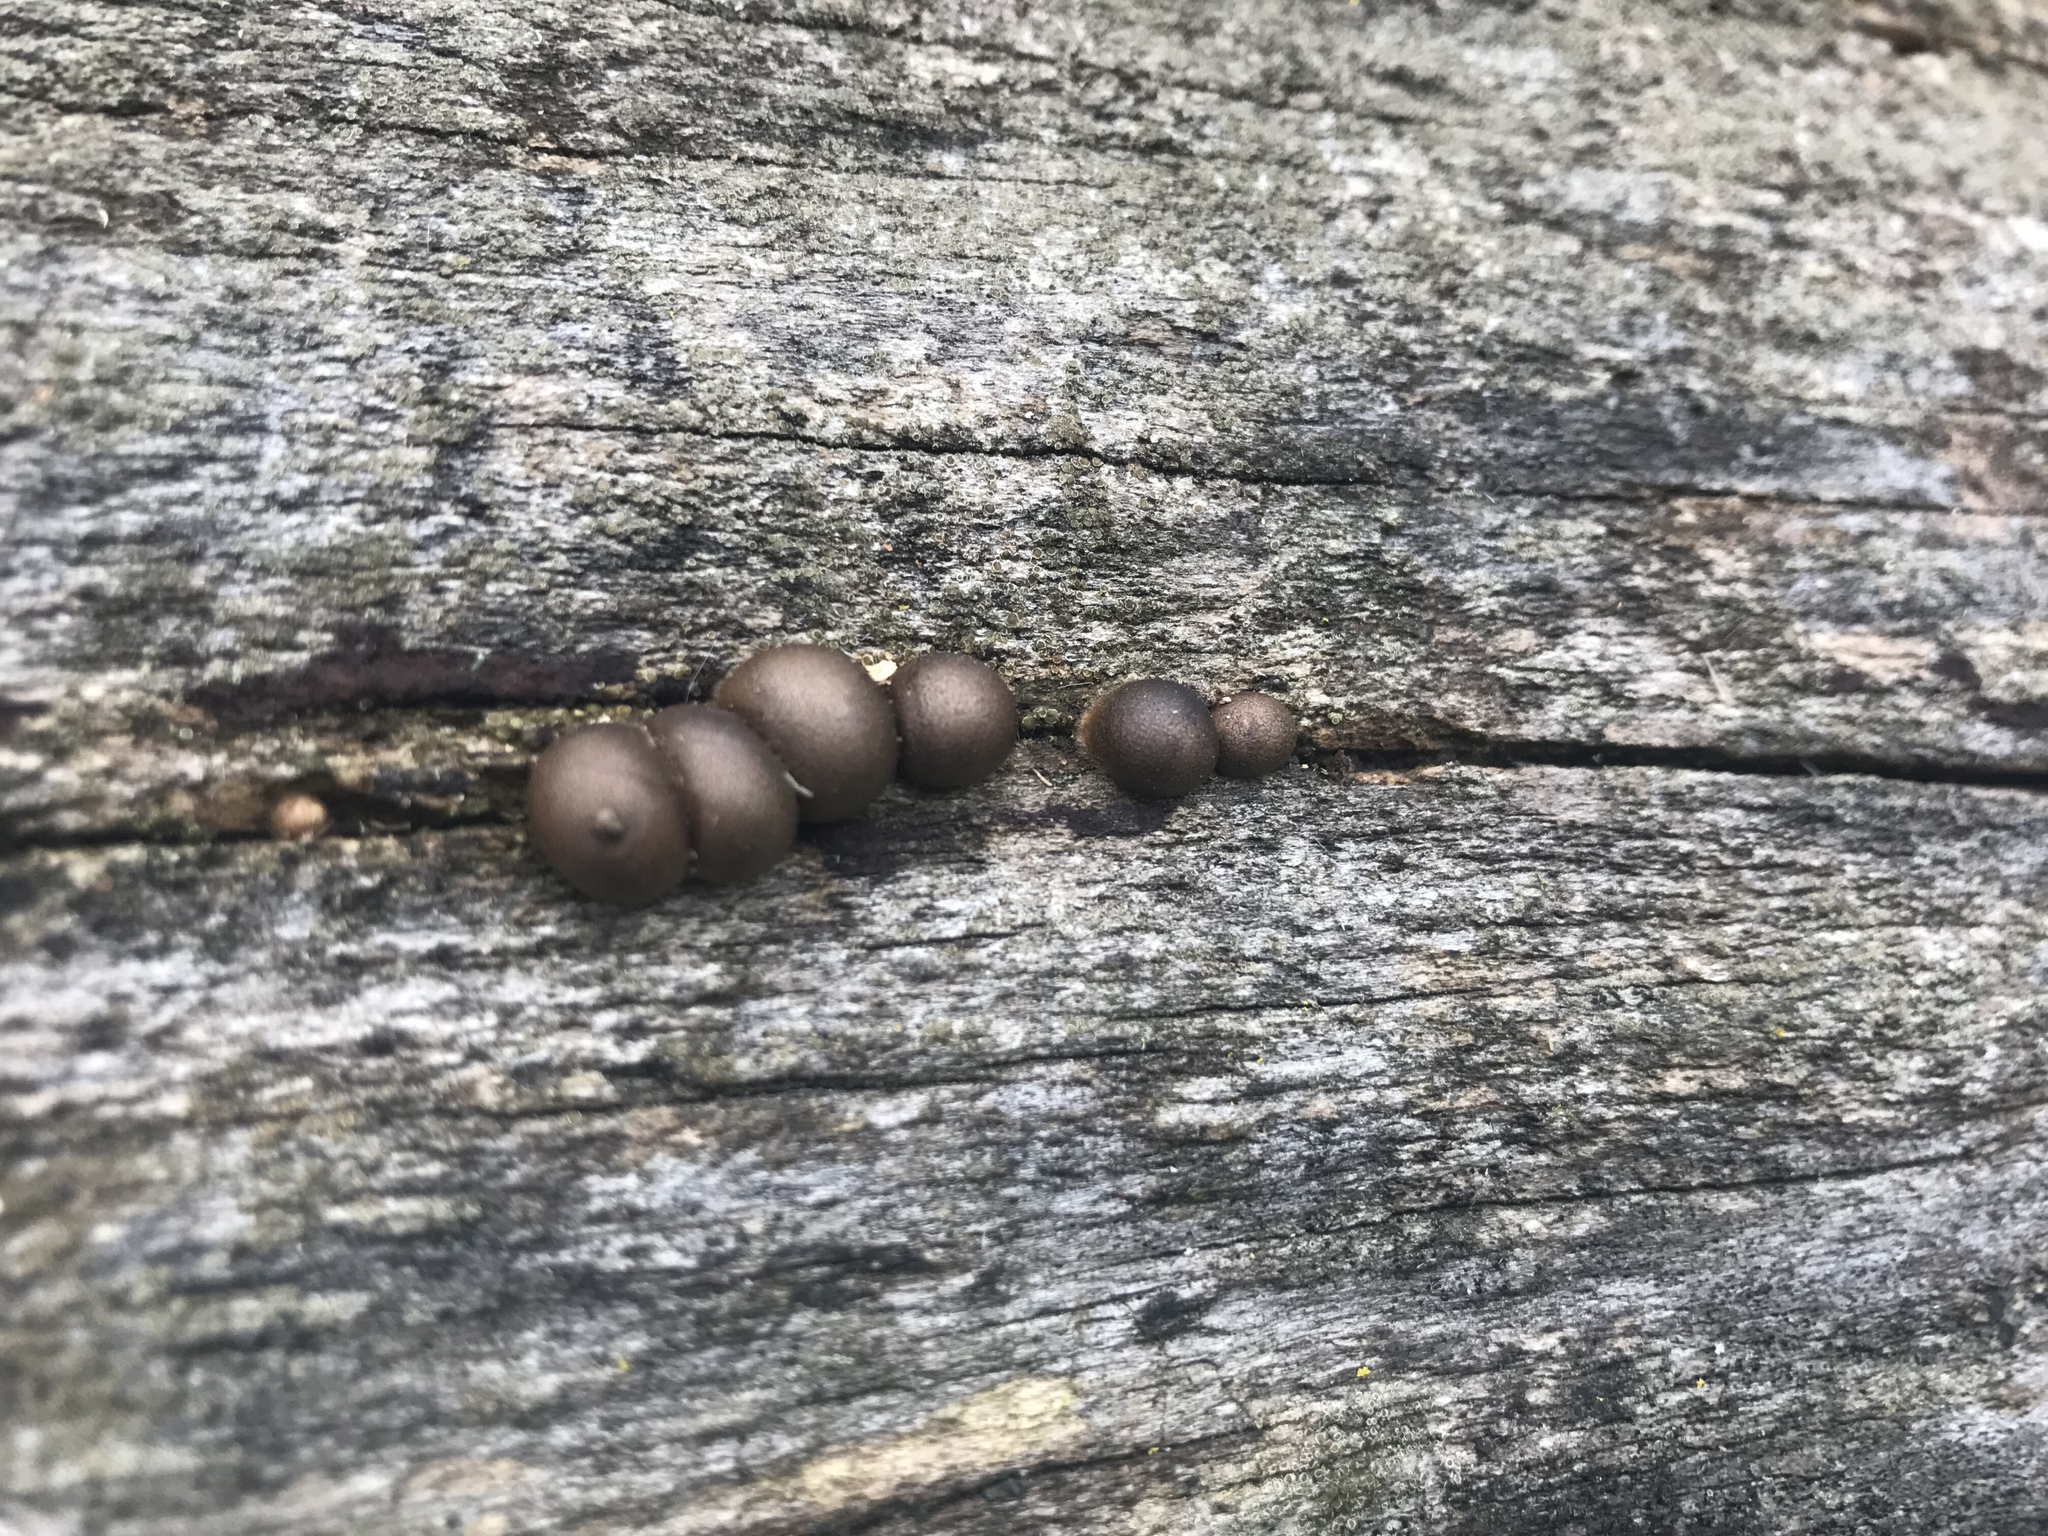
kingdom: Protozoa
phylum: Mycetozoa
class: Myxomycetes
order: Cribrariales
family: Tubiferaceae
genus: Lycogala
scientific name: Lycogala epidendrum
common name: Wolf's milk
